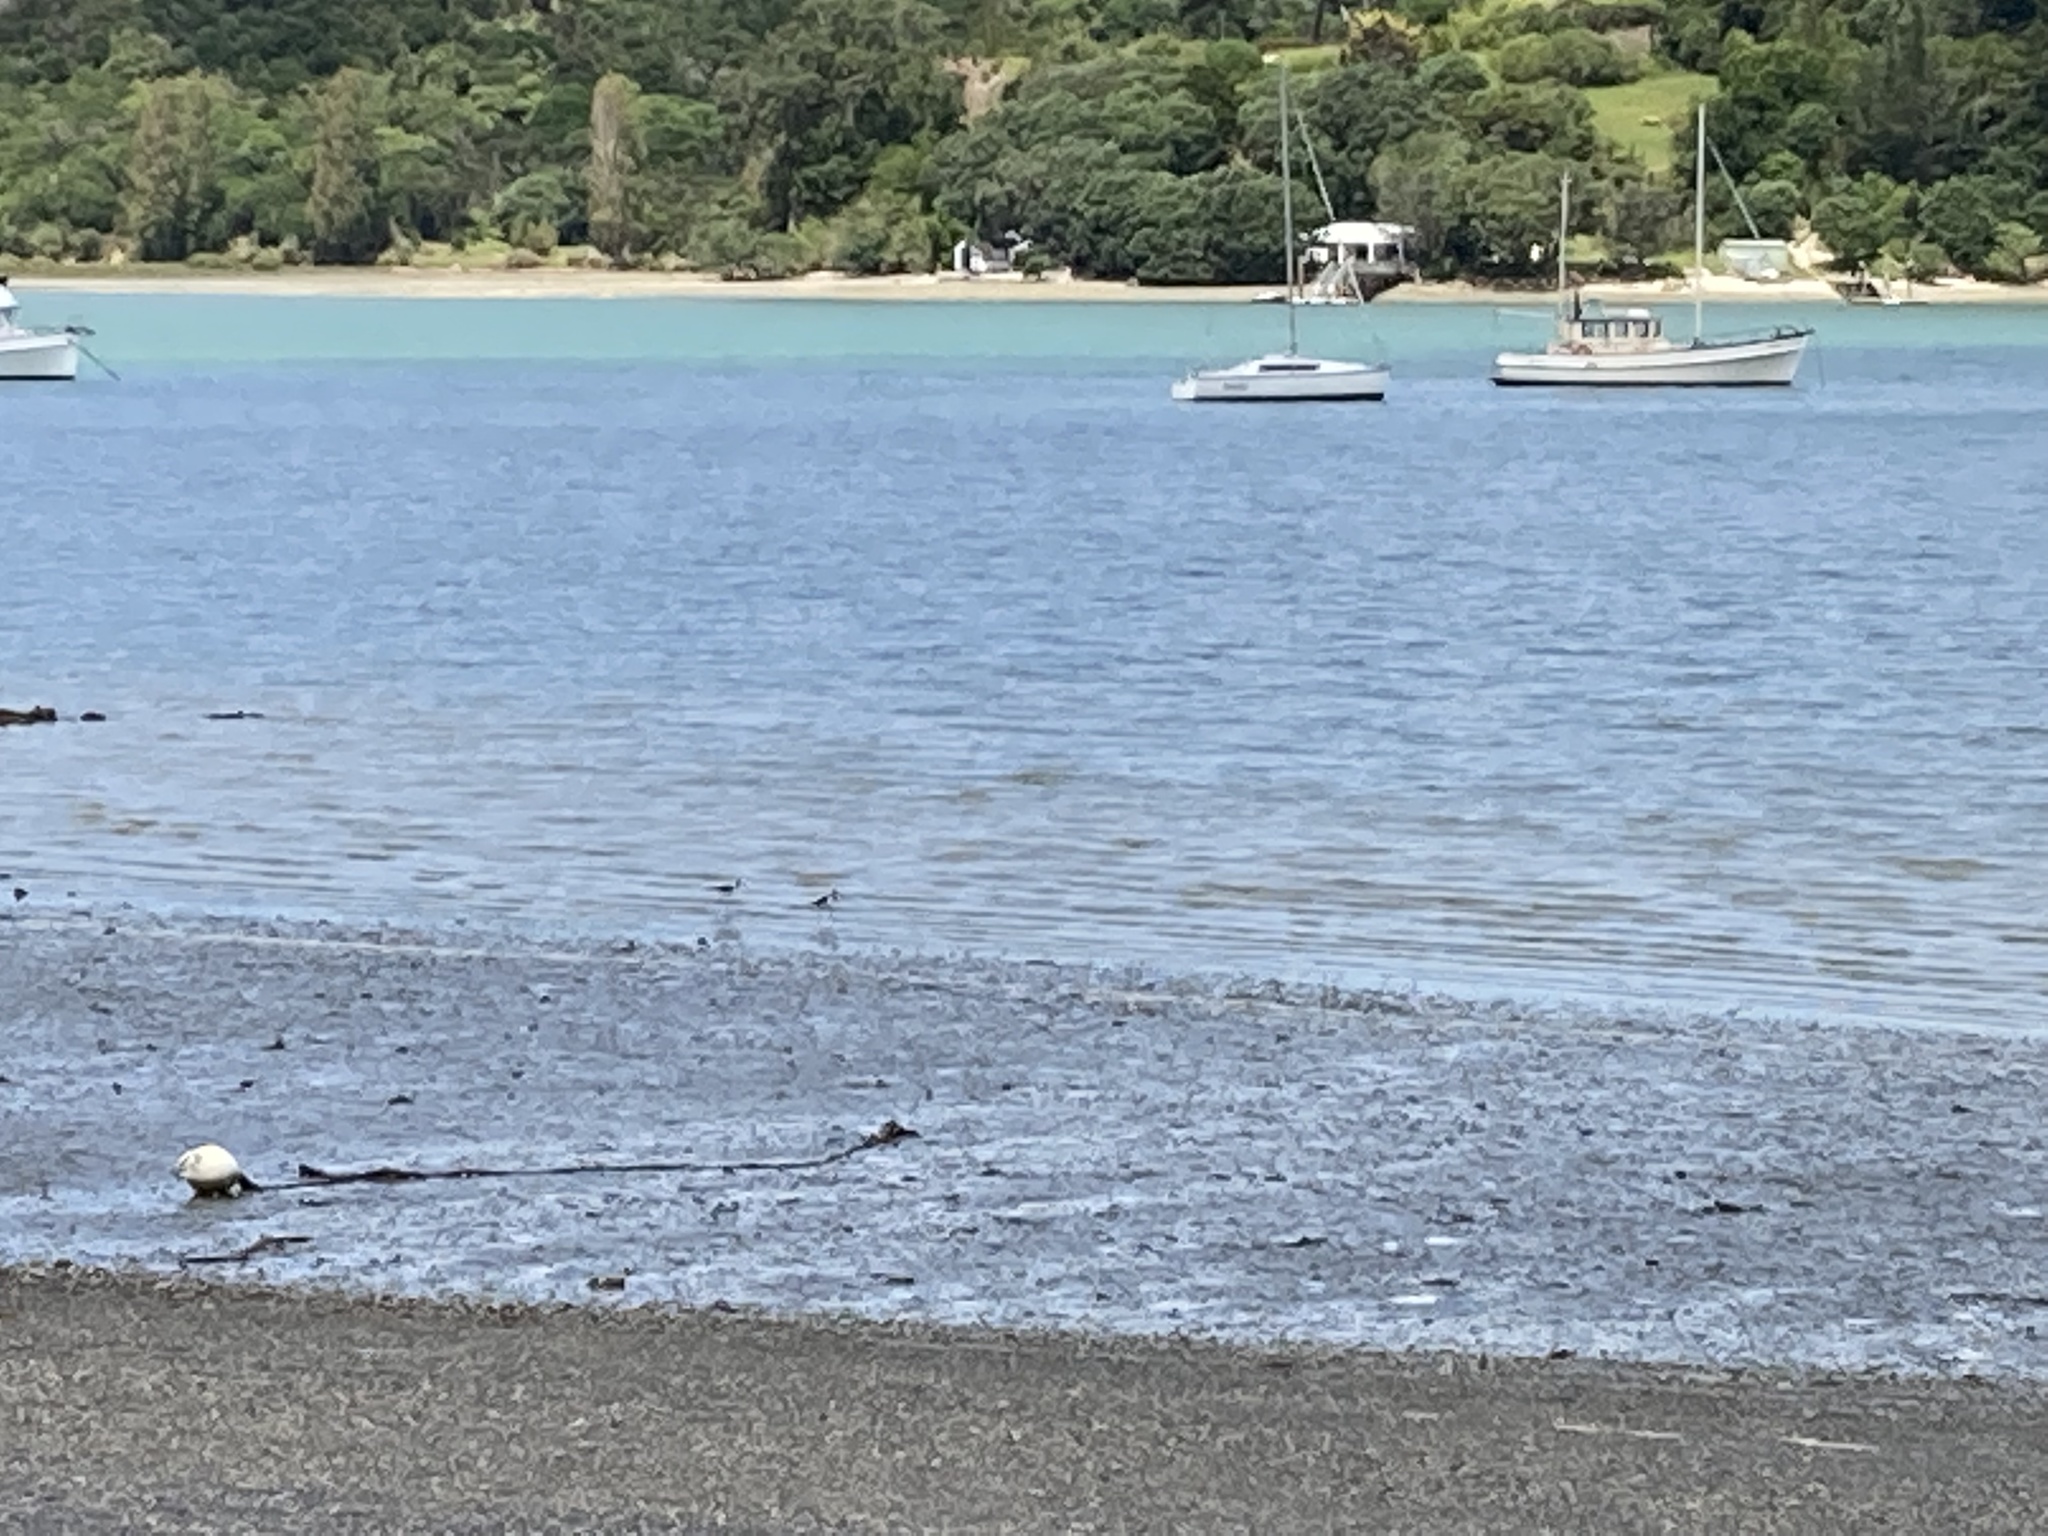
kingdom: Animalia
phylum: Chordata
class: Aves
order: Charadriiformes
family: Recurvirostridae
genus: Himantopus
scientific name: Himantopus leucocephalus
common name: White-headed stilt
